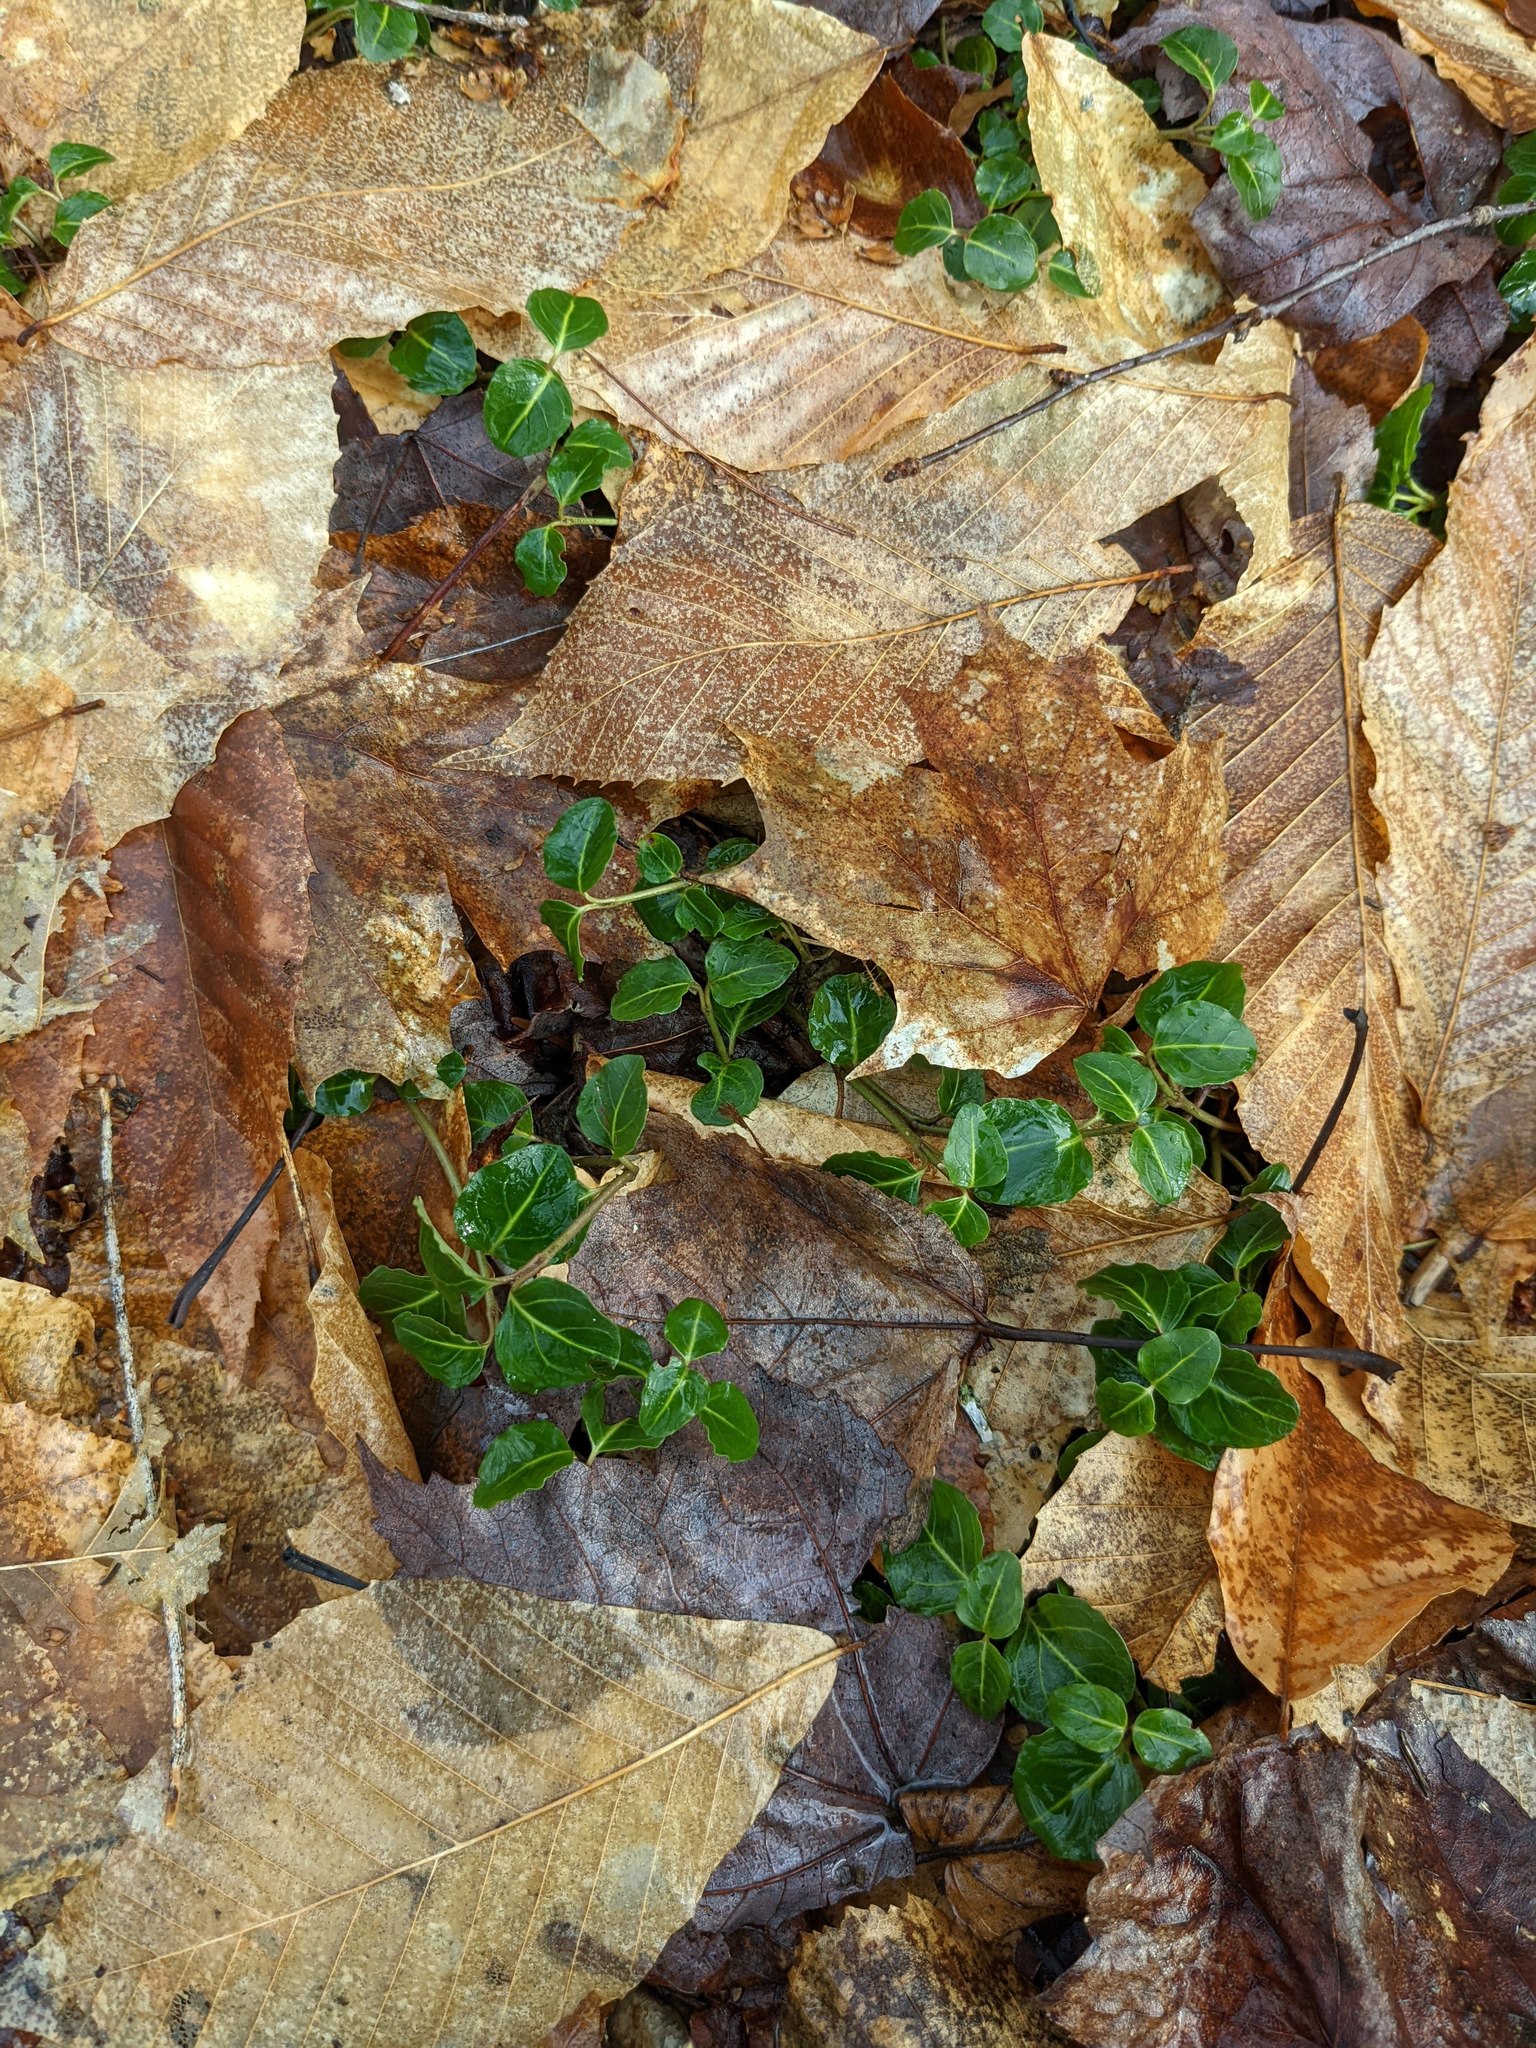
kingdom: Plantae
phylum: Tracheophyta
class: Magnoliopsida
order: Sapindales
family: Sapindaceae
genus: Acer
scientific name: Acer saccharum
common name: Sugar maple
